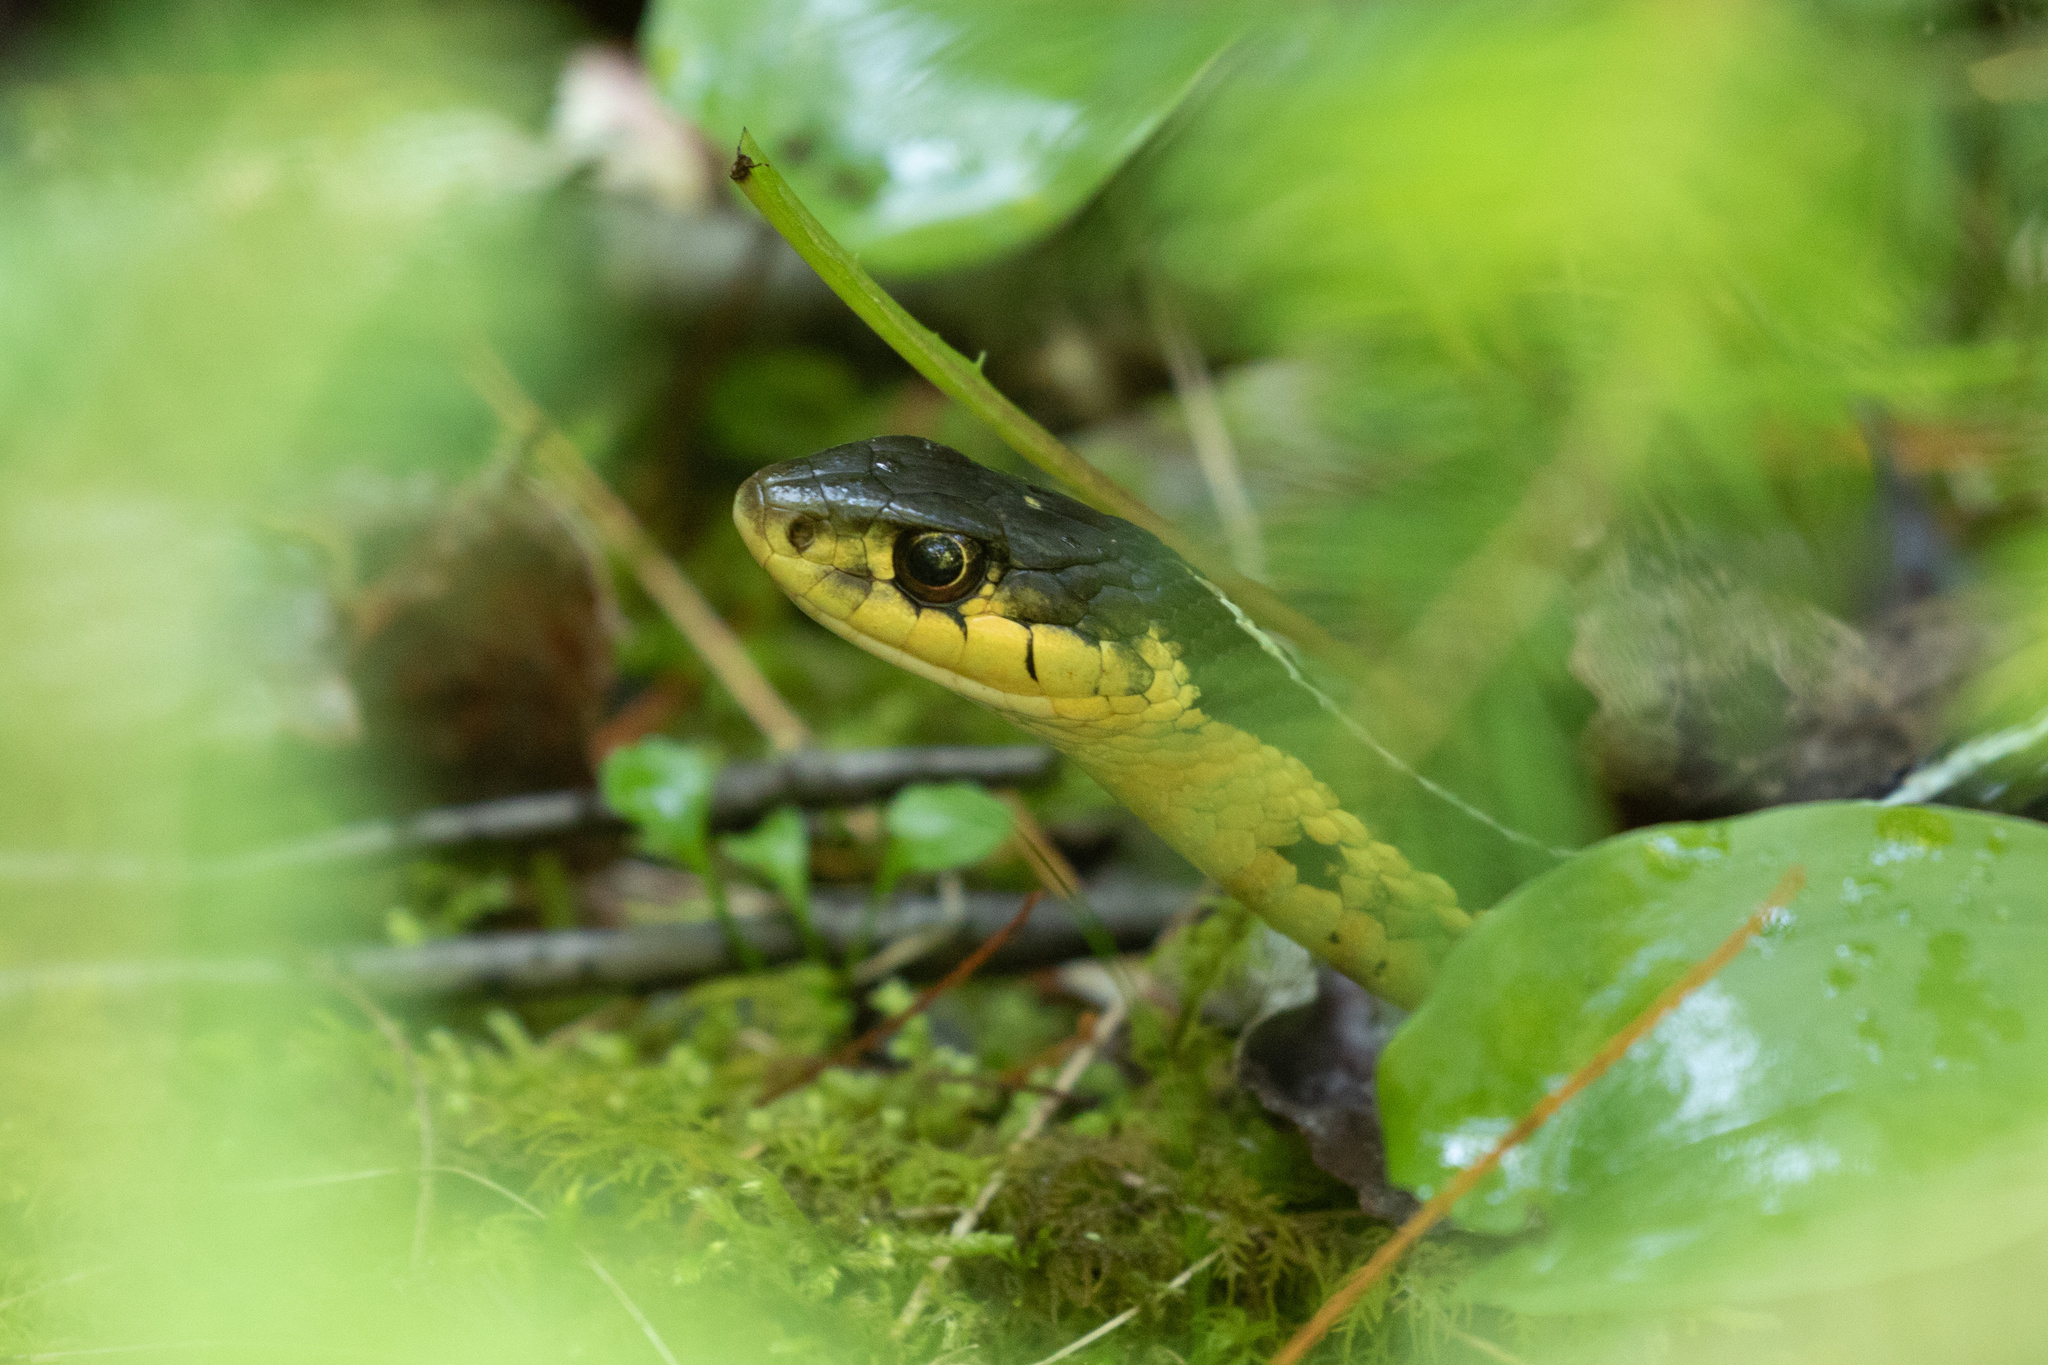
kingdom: Animalia
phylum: Chordata
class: Squamata
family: Colubridae
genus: Thamnophis
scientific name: Thamnophis sirtalis
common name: Common garter snake
